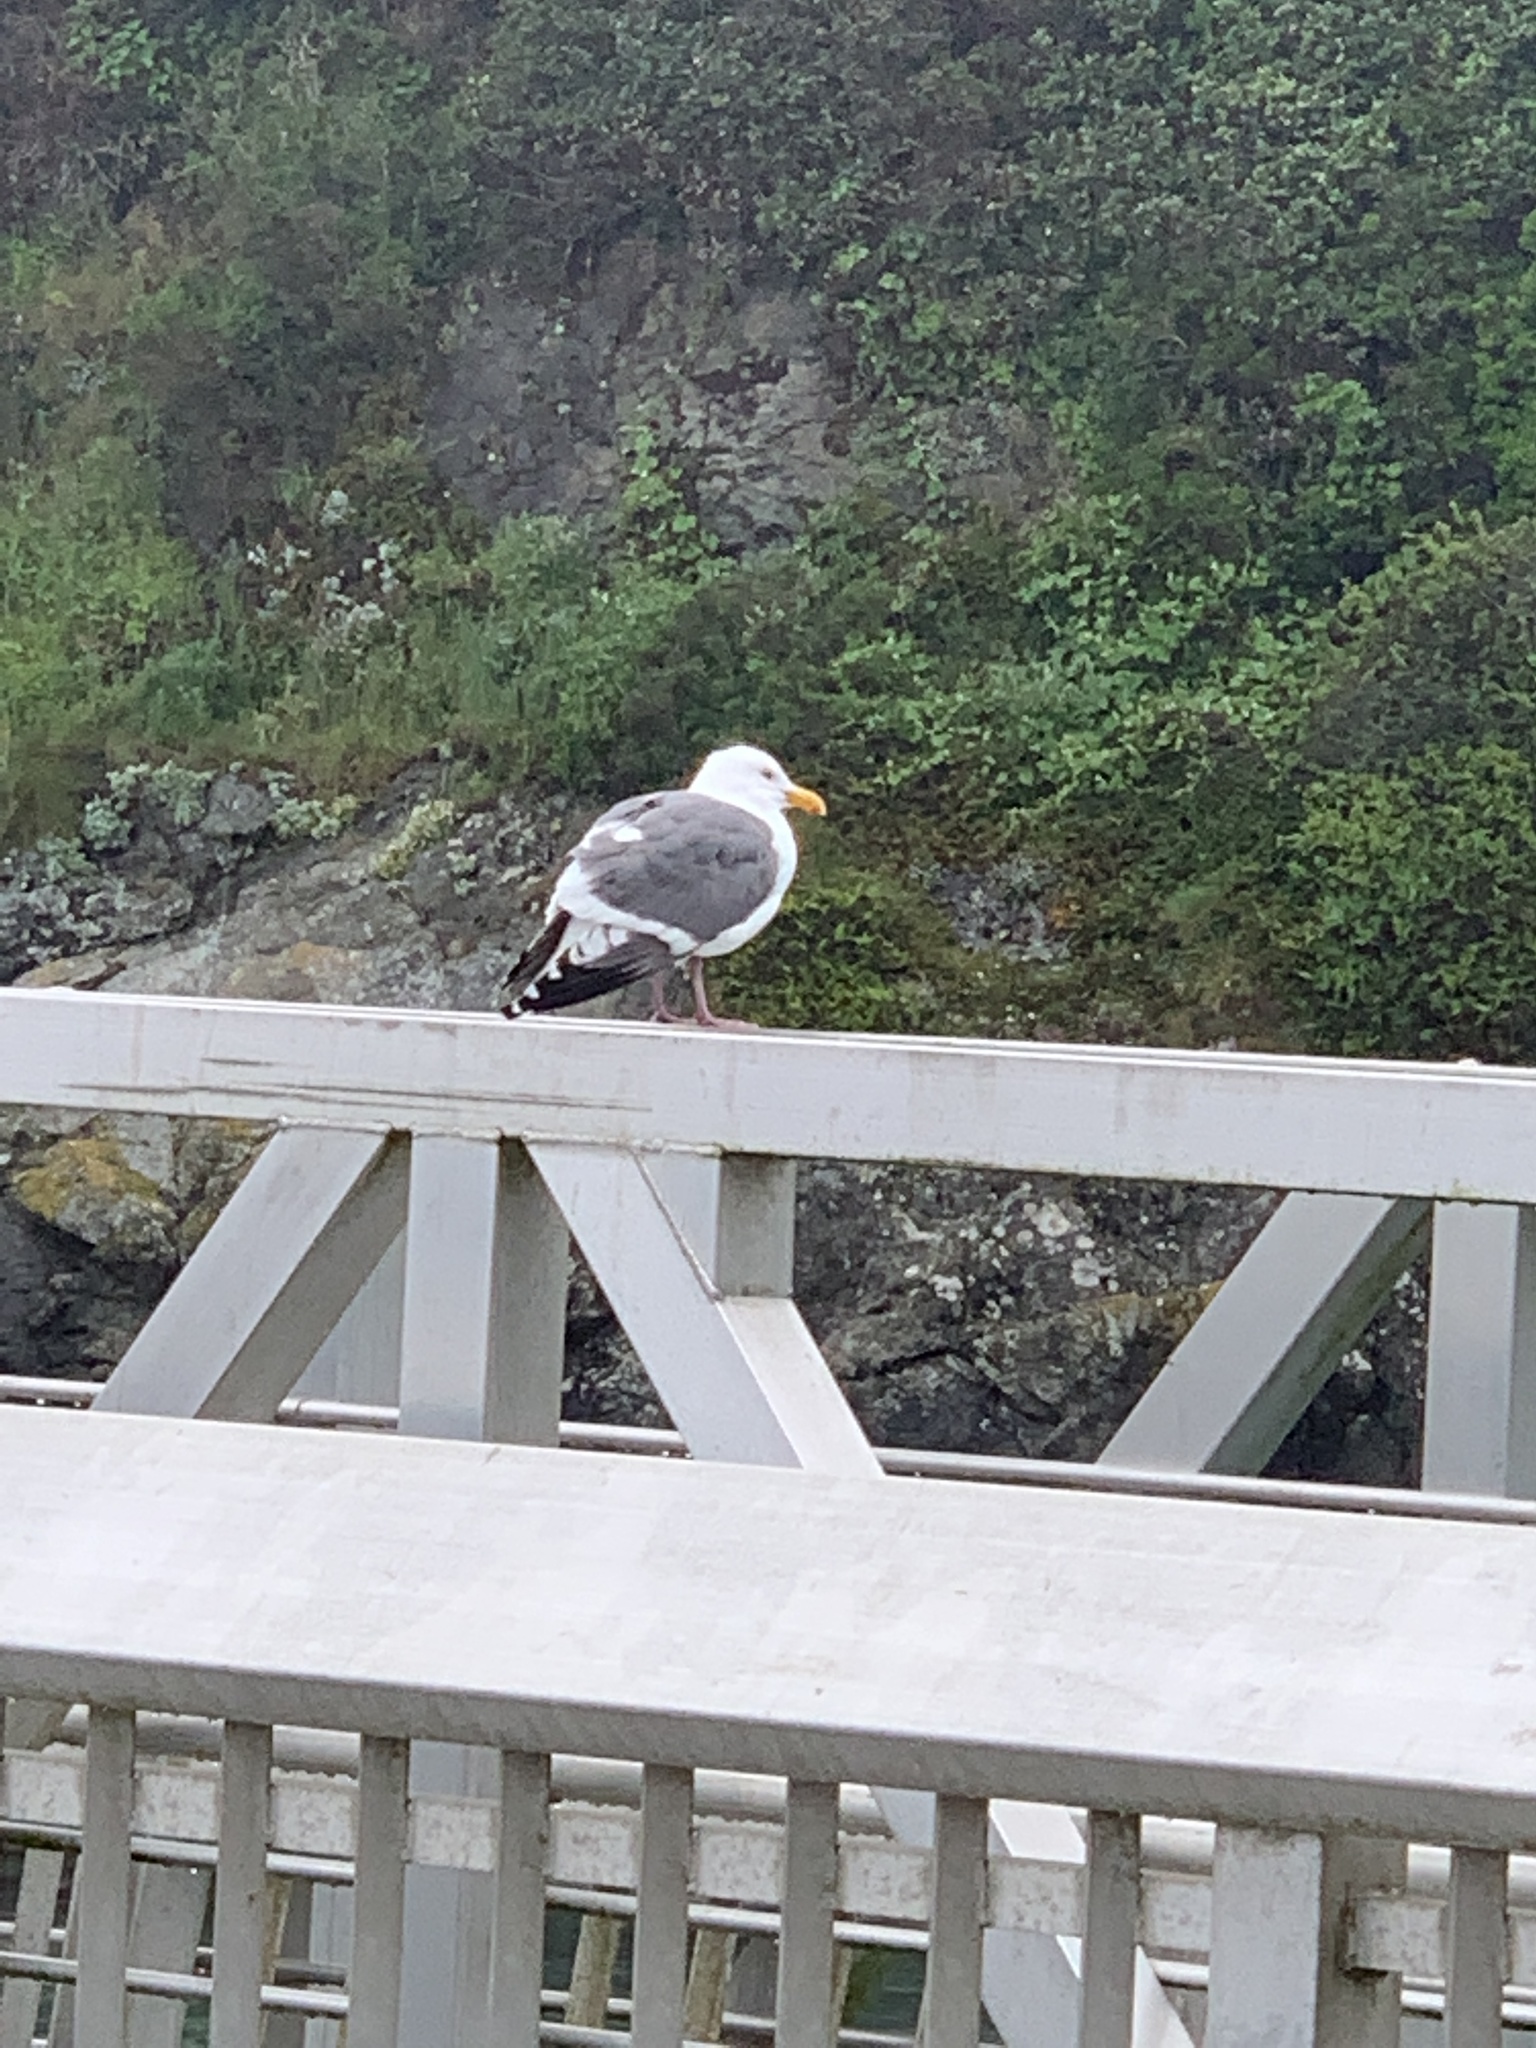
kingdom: Animalia
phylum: Chordata
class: Aves
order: Charadriiformes
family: Laridae
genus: Larus
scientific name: Larus occidentalis
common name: Western gull
